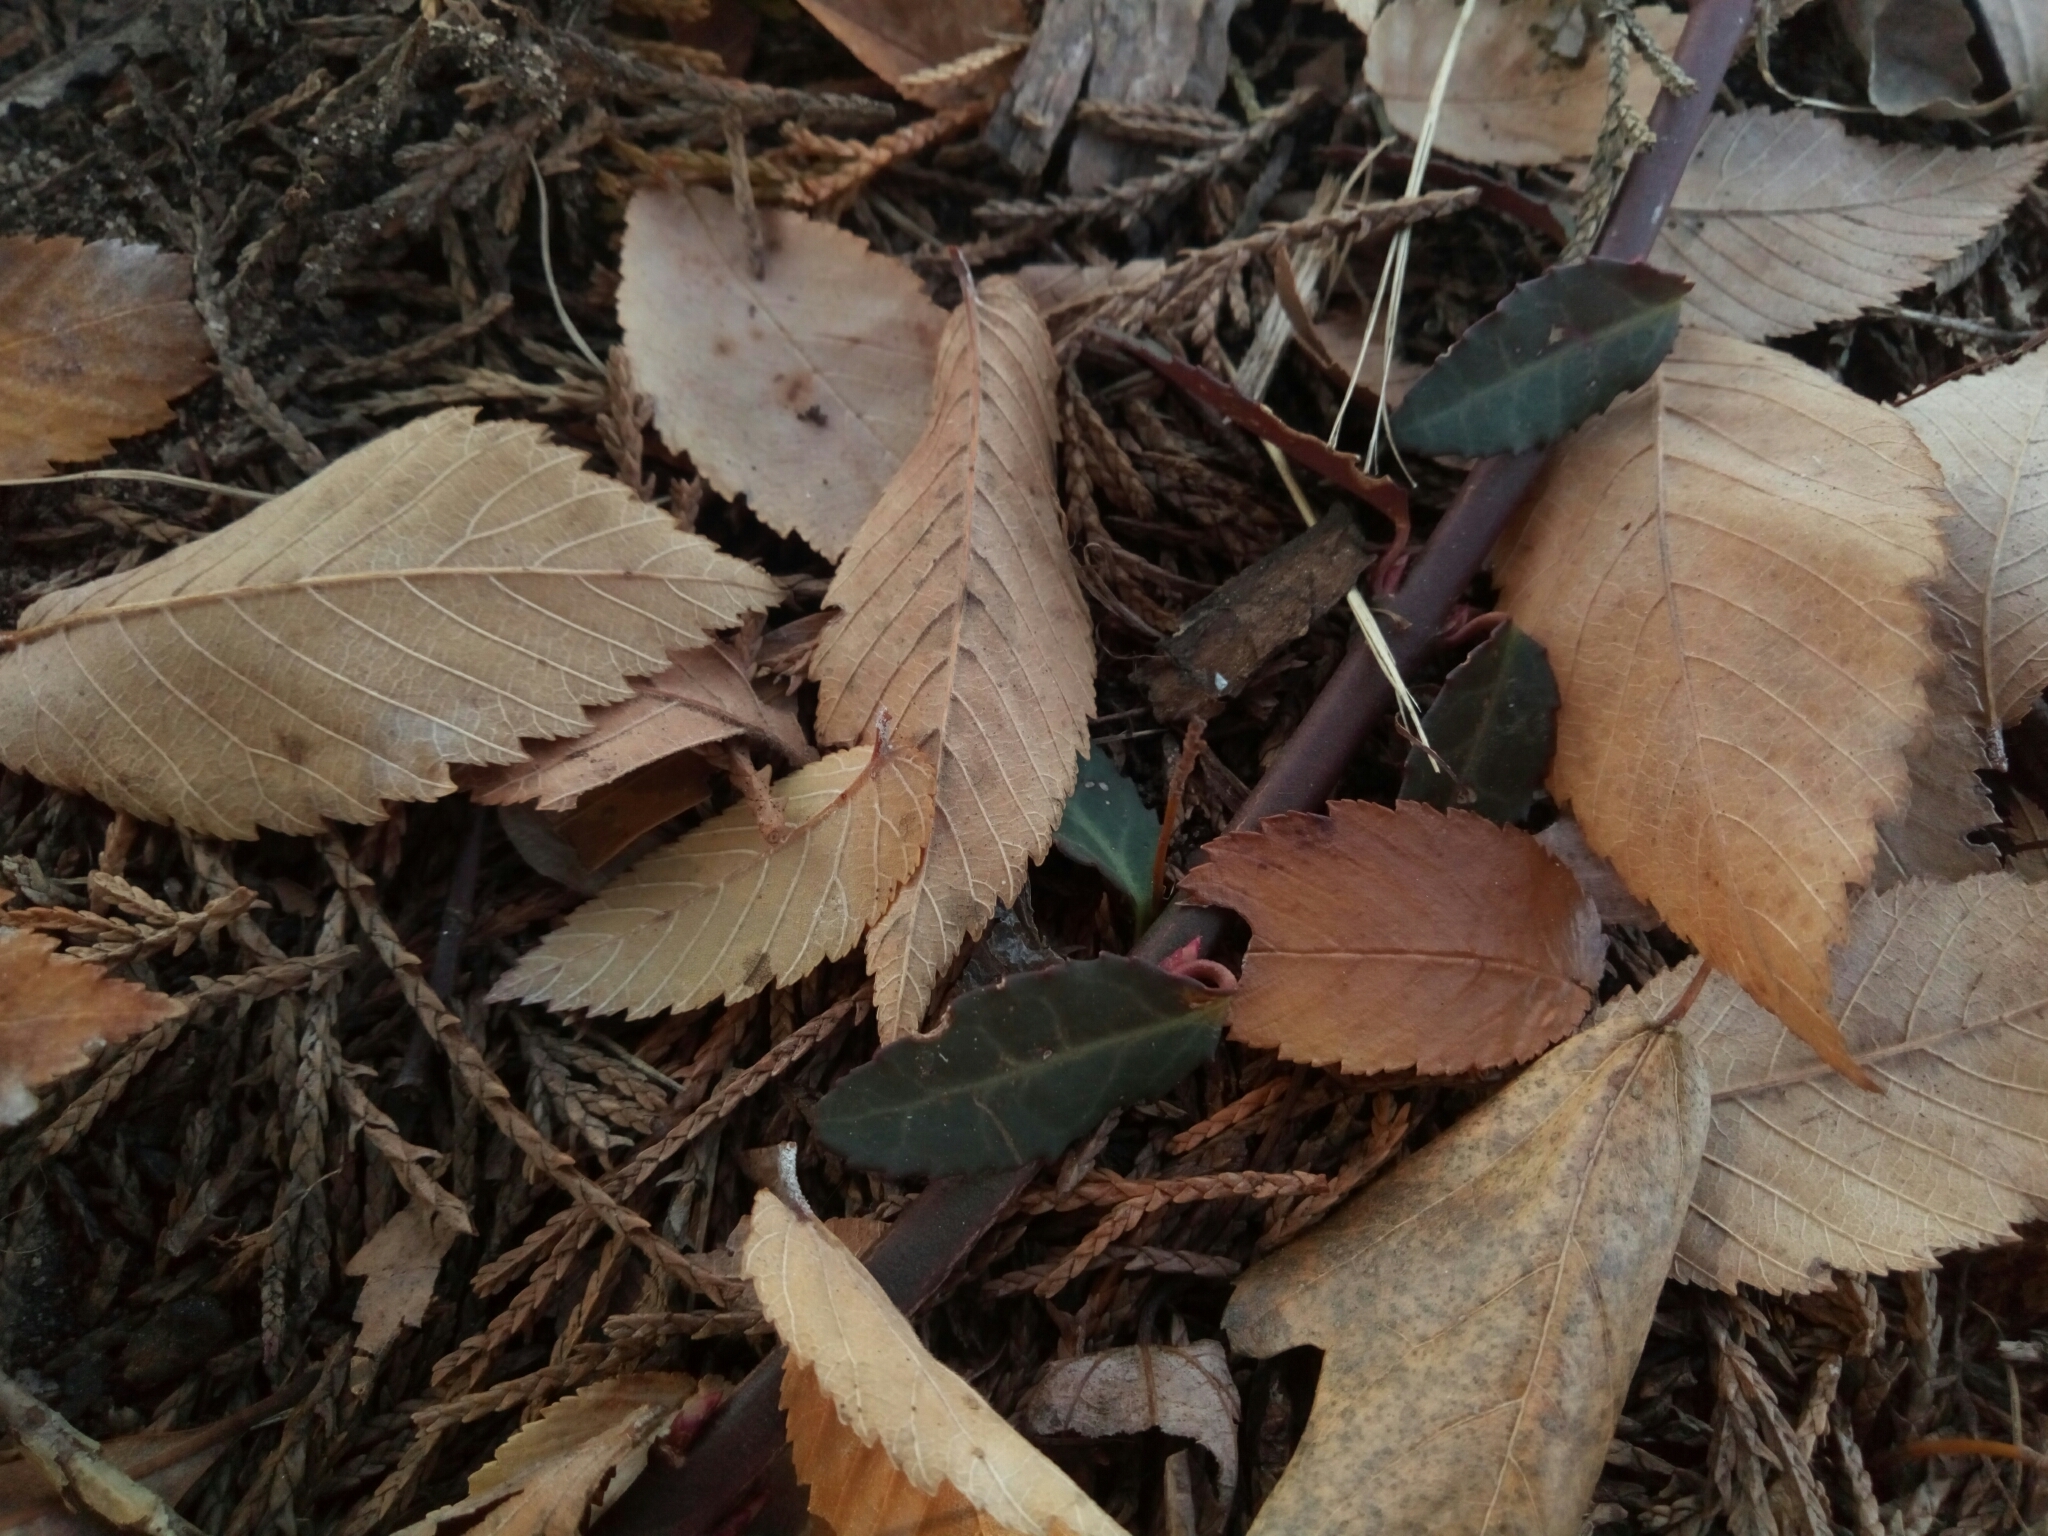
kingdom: Plantae
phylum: Tracheophyta
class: Magnoliopsida
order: Celastrales
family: Celastraceae
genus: Euonymus
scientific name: Euonymus fortunei
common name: Climbing euonymus
